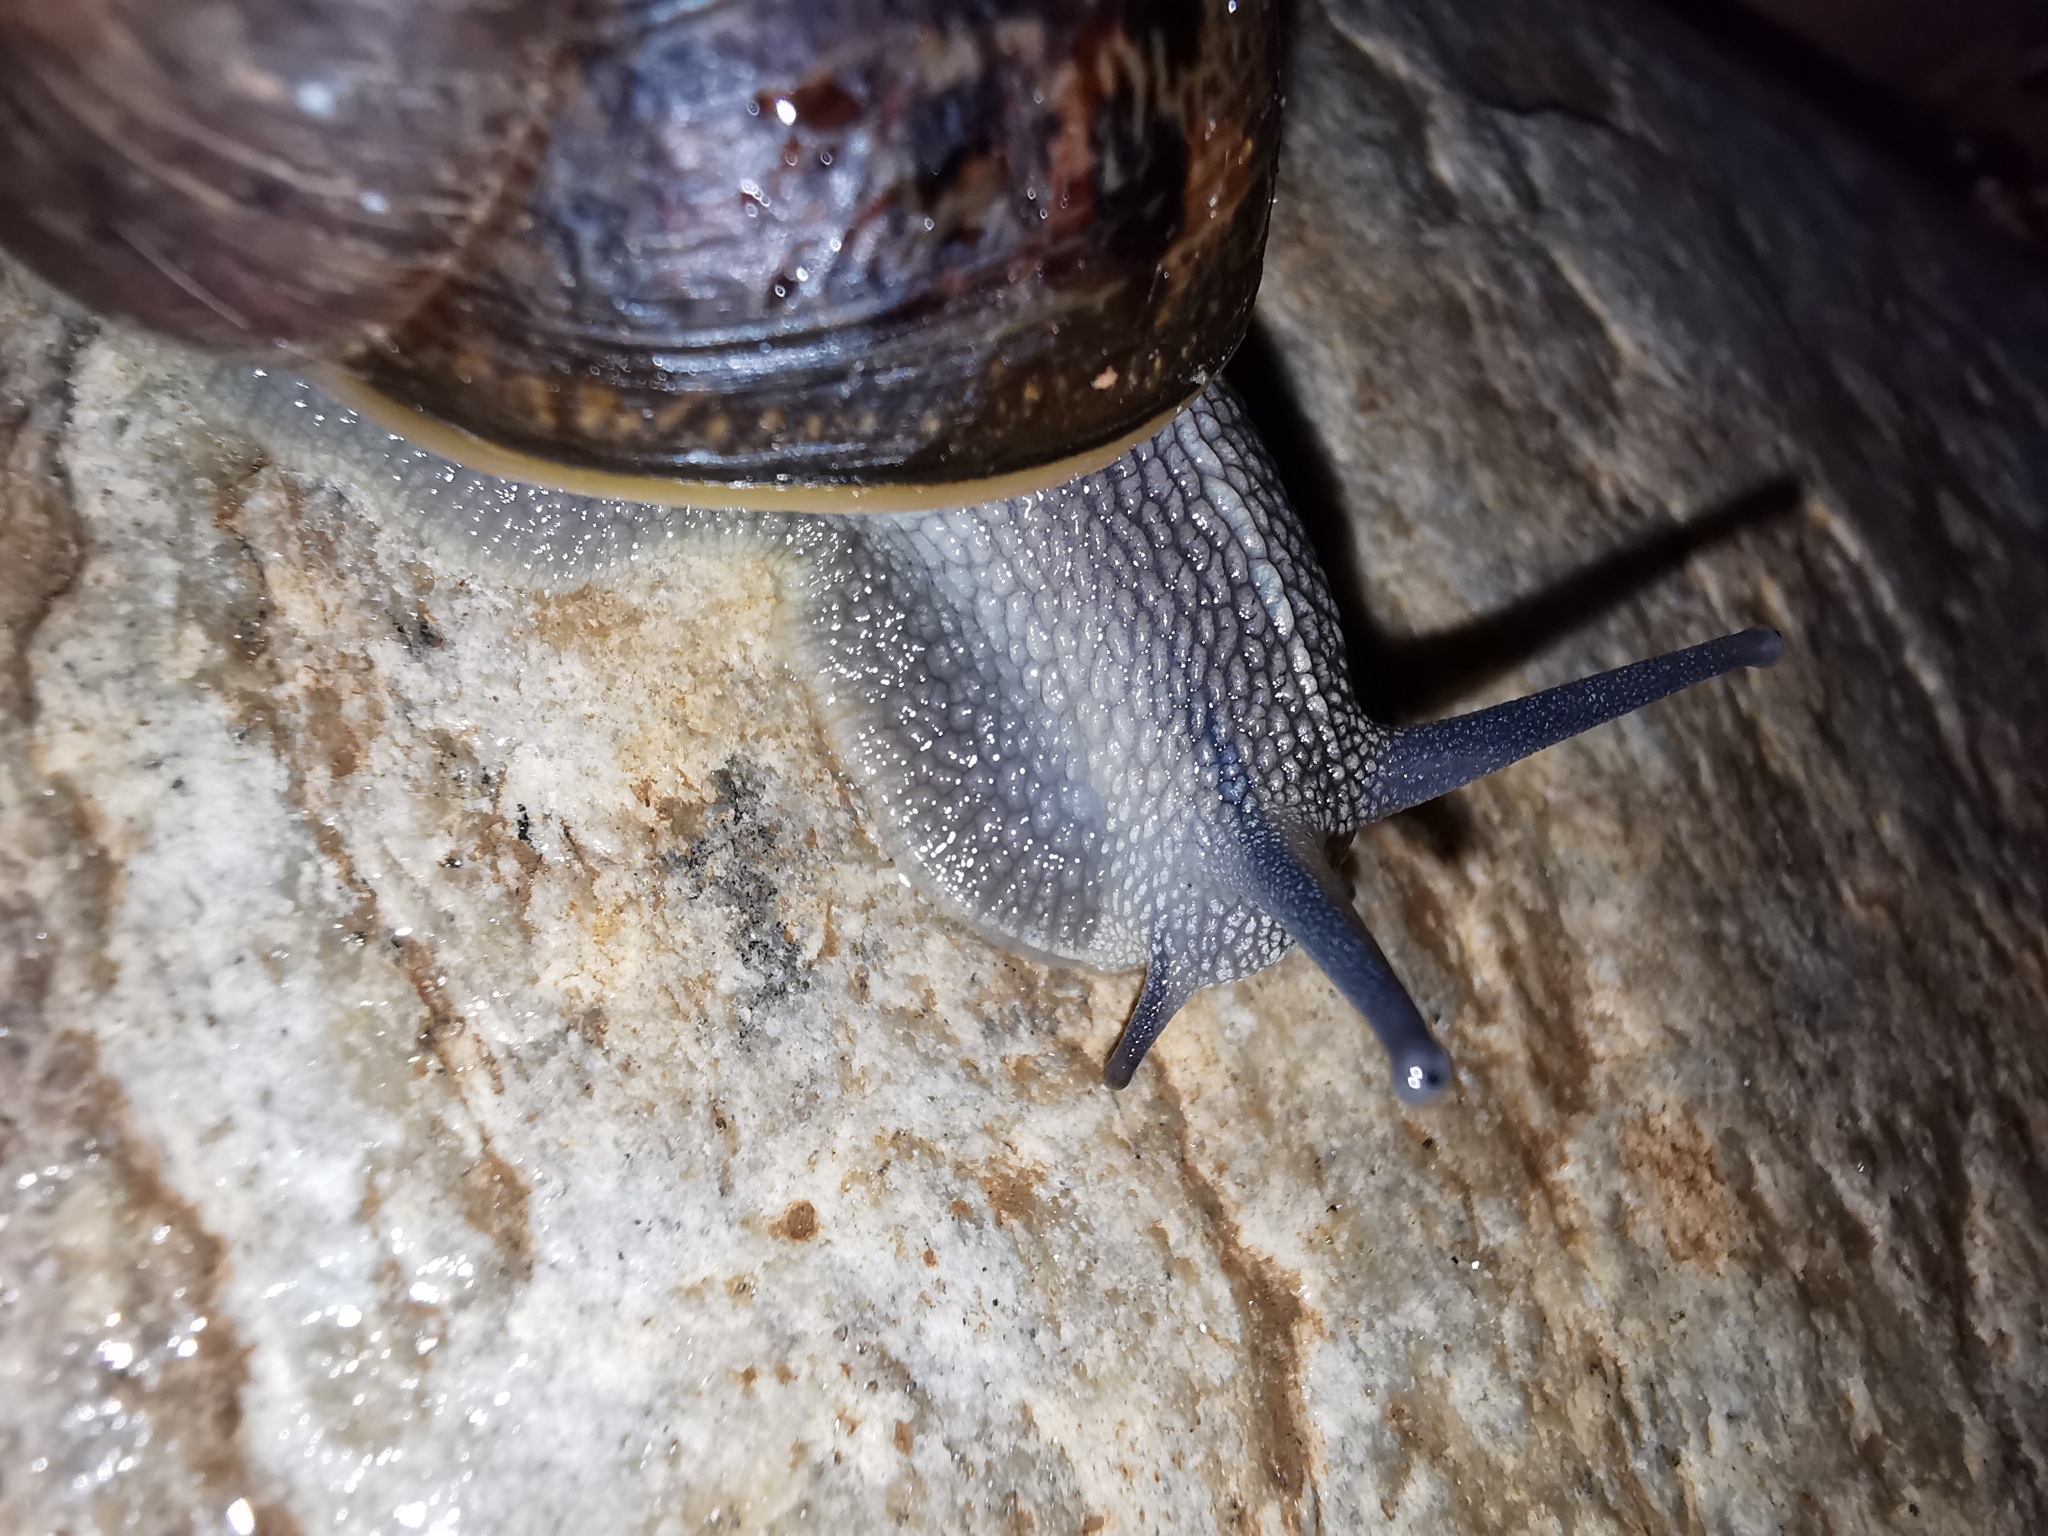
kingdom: Animalia
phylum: Mollusca
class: Gastropoda
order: Stylommatophora
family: Helicidae
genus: Cornu
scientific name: Cornu aspersum
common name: Brown garden snail
